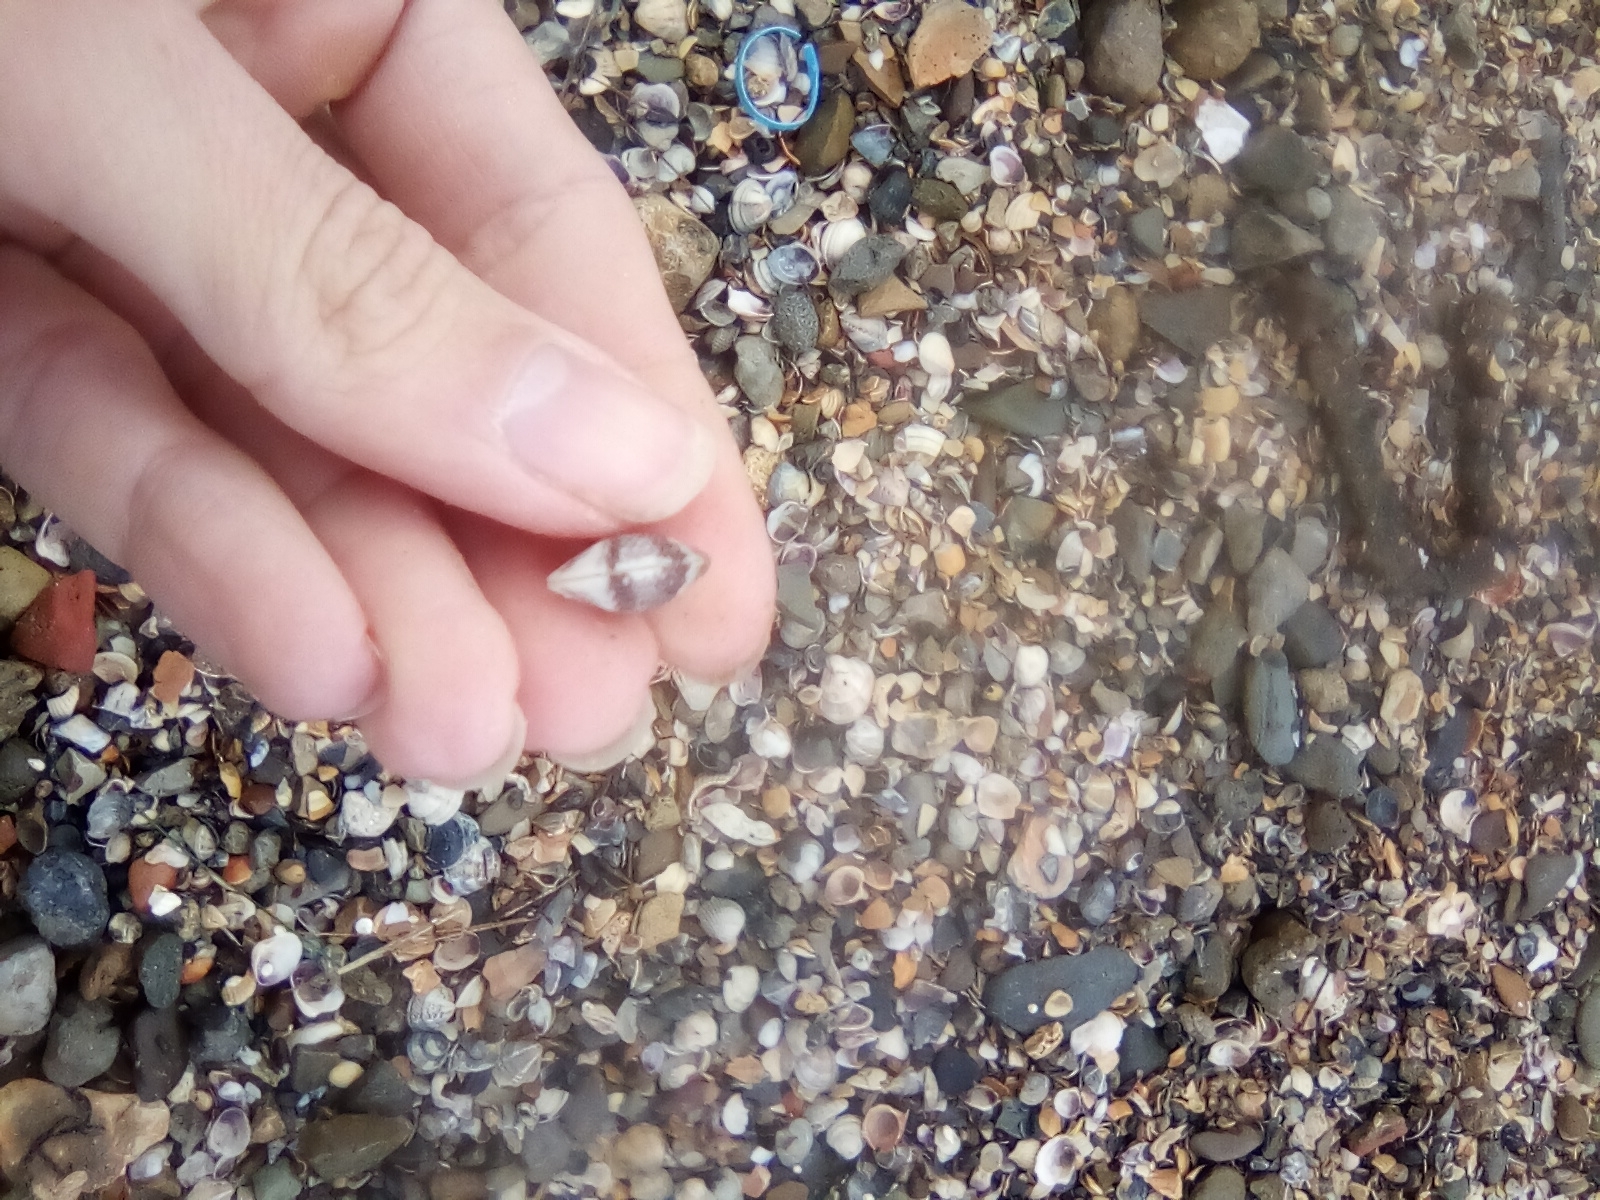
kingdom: Animalia
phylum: Mollusca
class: Bivalvia
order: Venerida
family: Veneridae
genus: Chamelea
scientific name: Chamelea gallina
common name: Chicken venus
